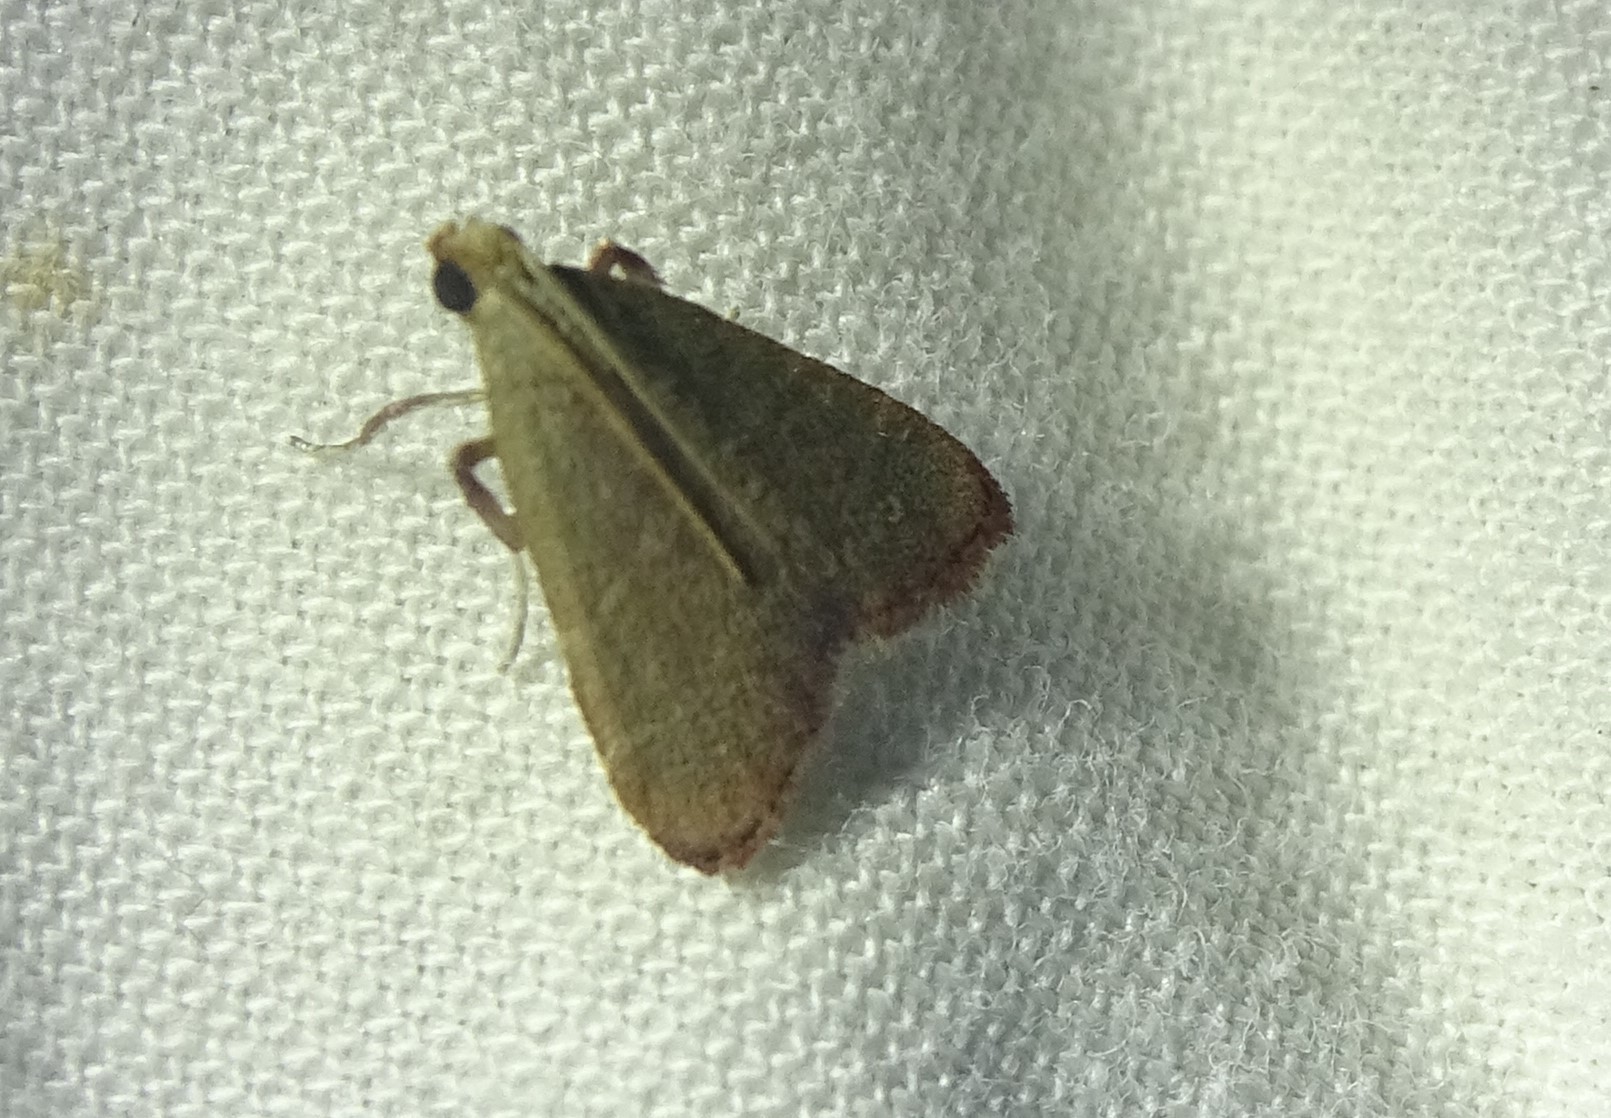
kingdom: Animalia
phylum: Arthropoda
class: Insecta
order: Lepidoptera
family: Pyralidae
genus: Arta
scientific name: Arta olivalis
